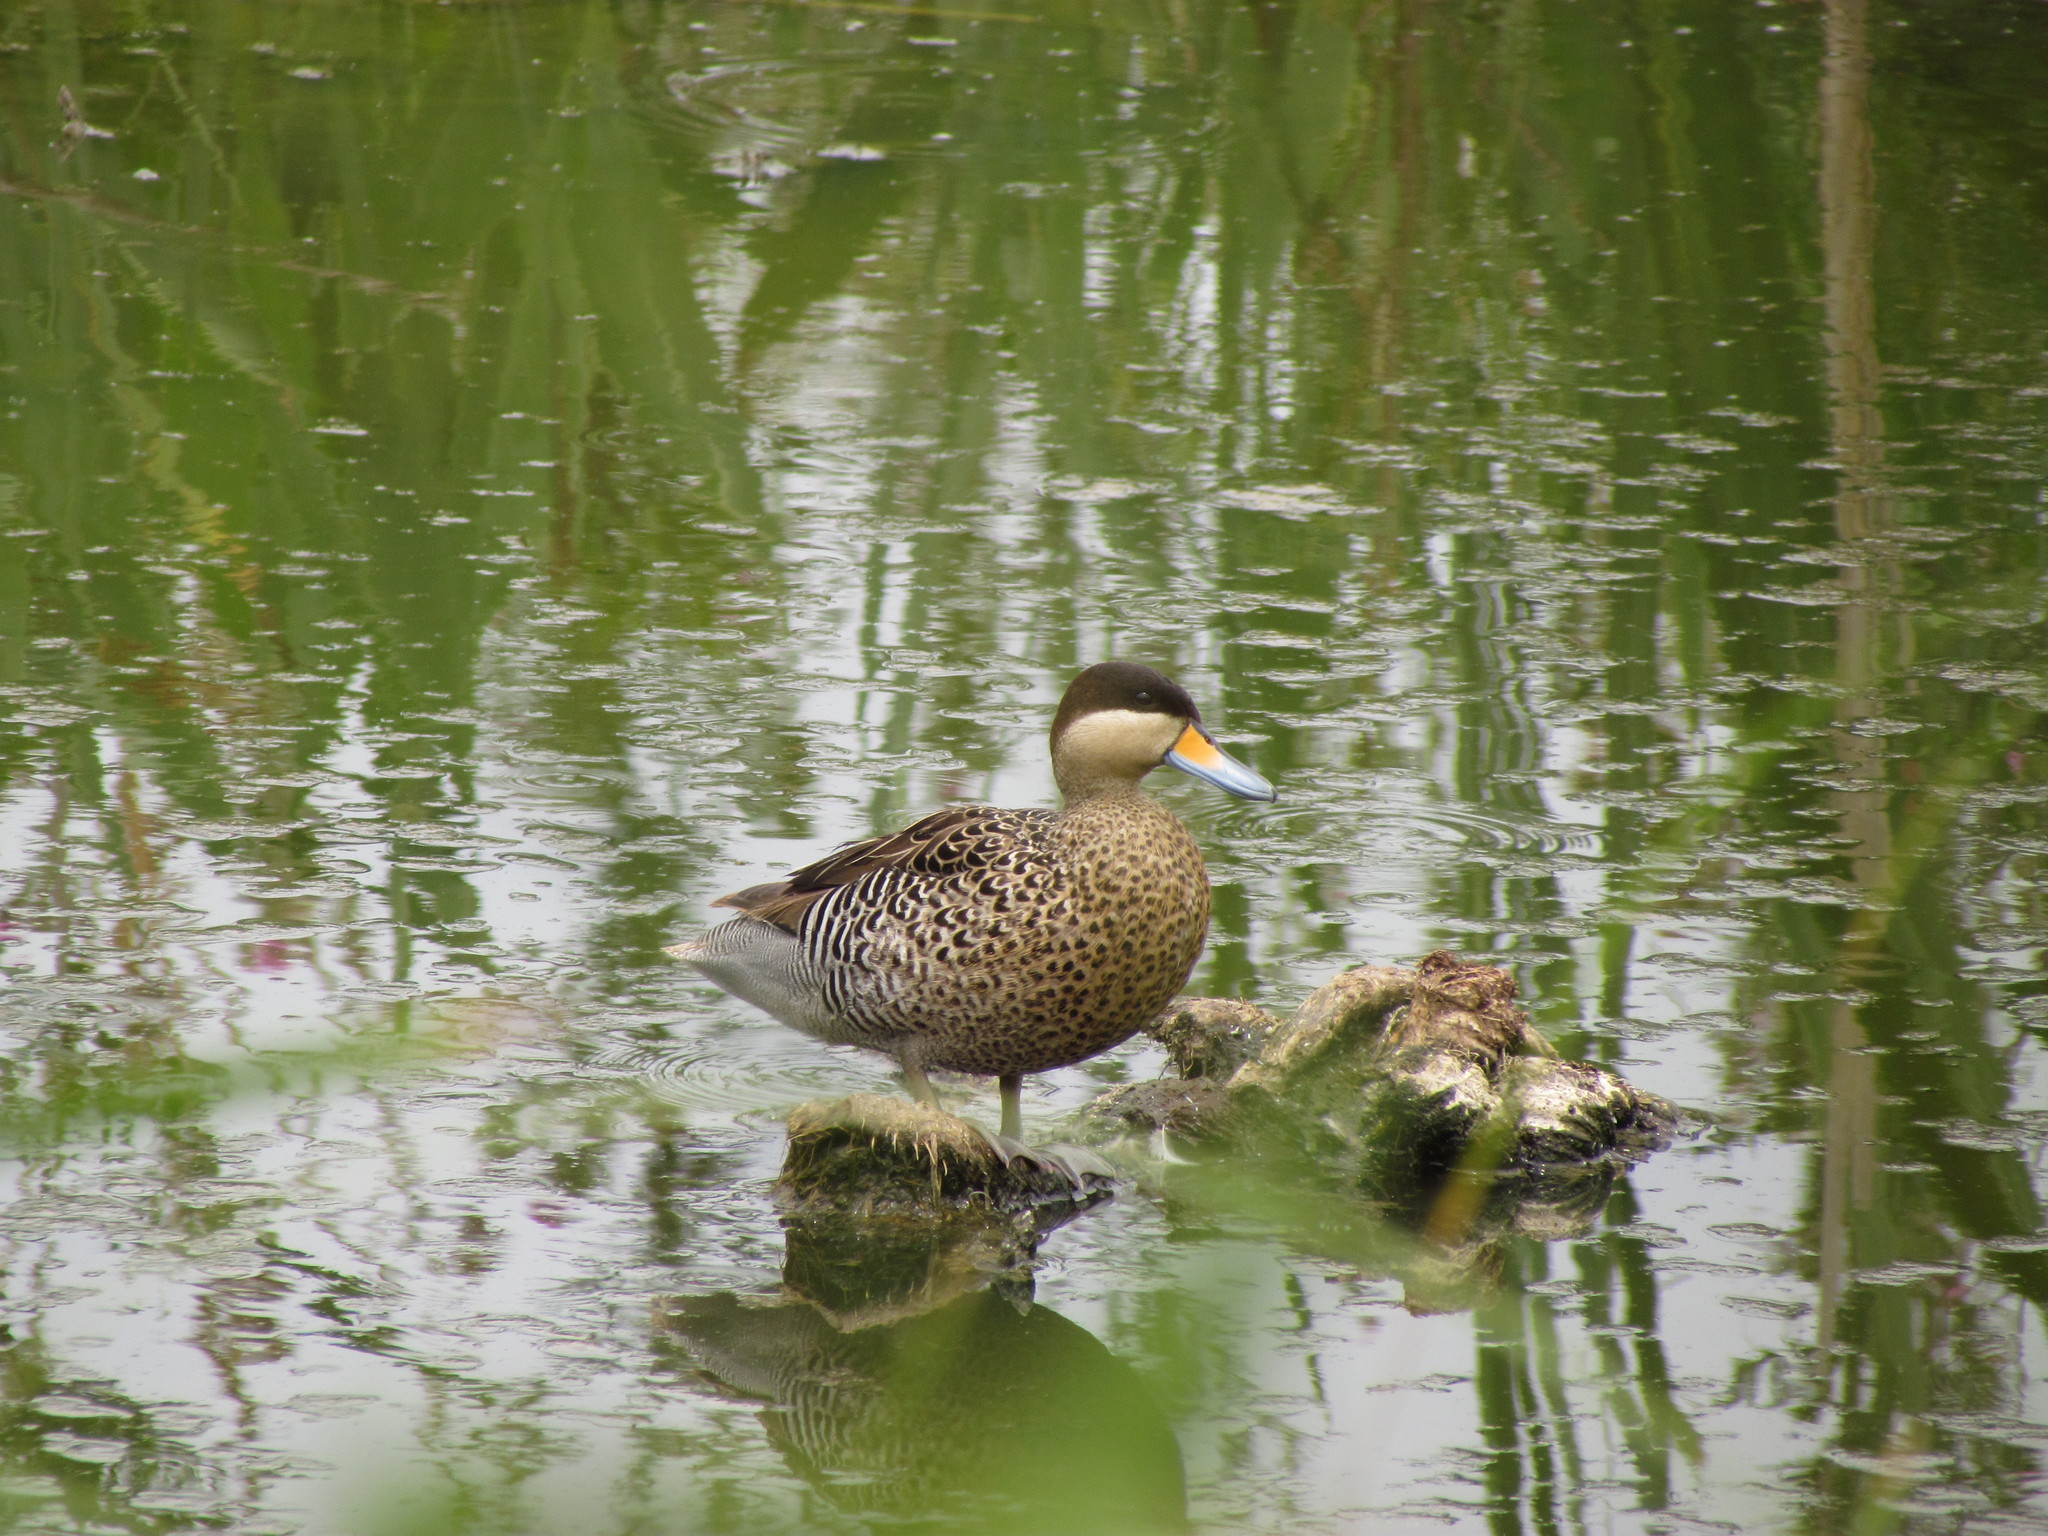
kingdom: Animalia
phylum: Chordata
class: Aves
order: Anseriformes
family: Anatidae
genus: Spatula
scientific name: Spatula versicolor
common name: Silver teal
